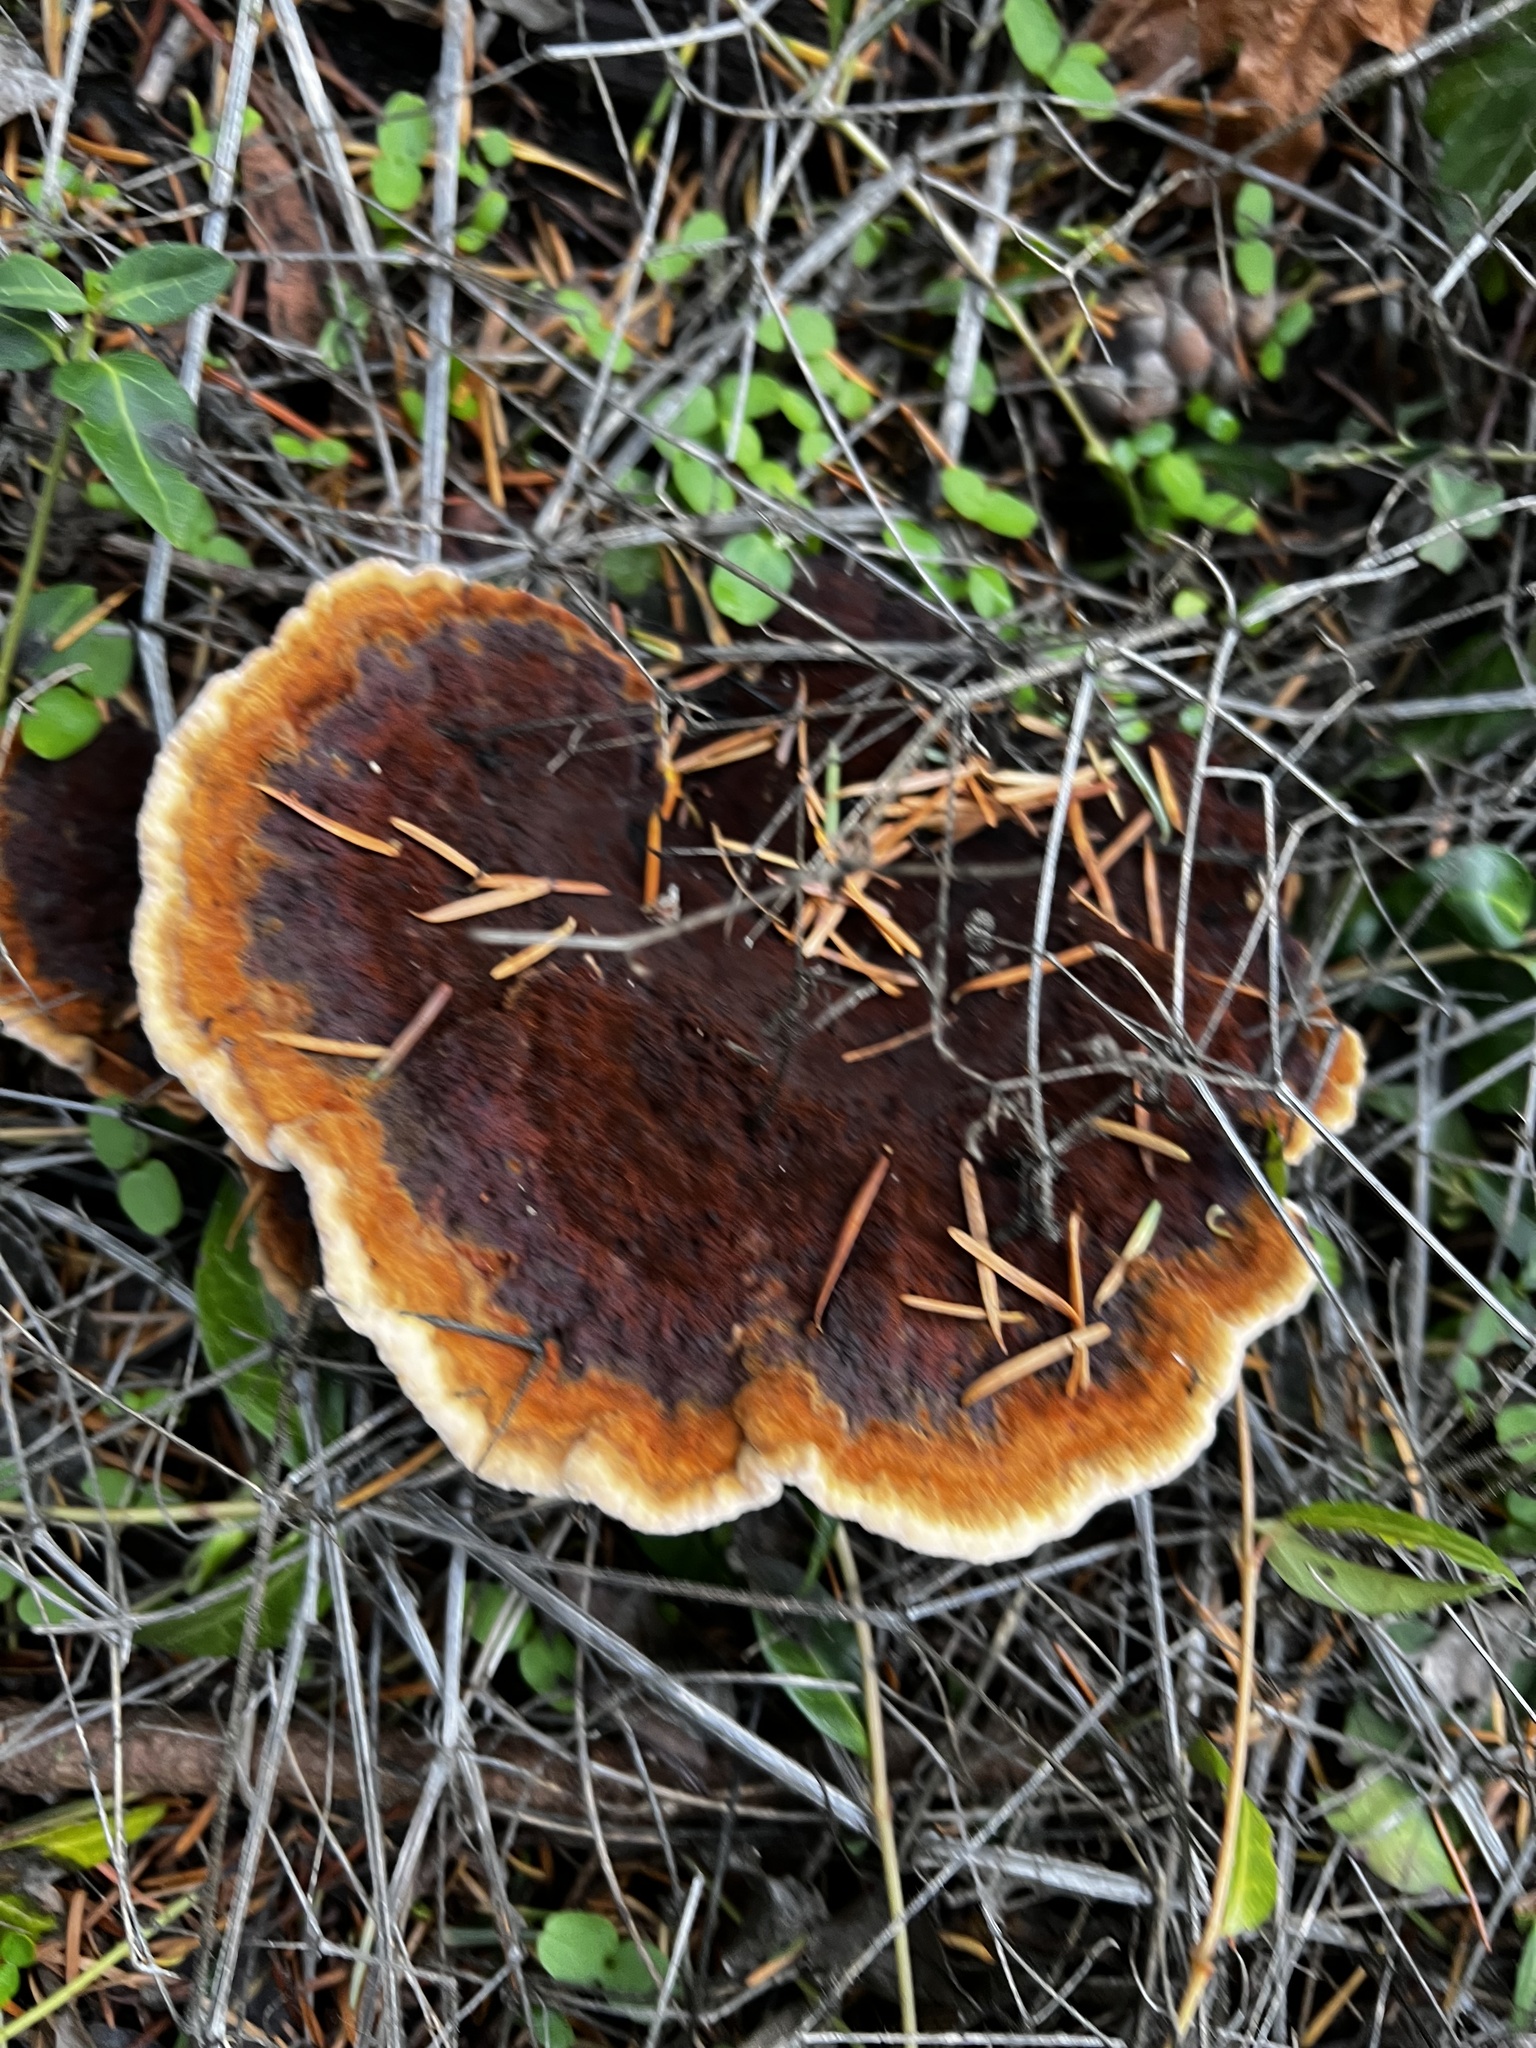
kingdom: Fungi
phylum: Basidiomycota
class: Agaricomycetes
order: Polyporales
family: Laetiporaceae
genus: Phaeolus
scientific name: Phaeolus schweinitzii
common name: Dyer's mazegill
